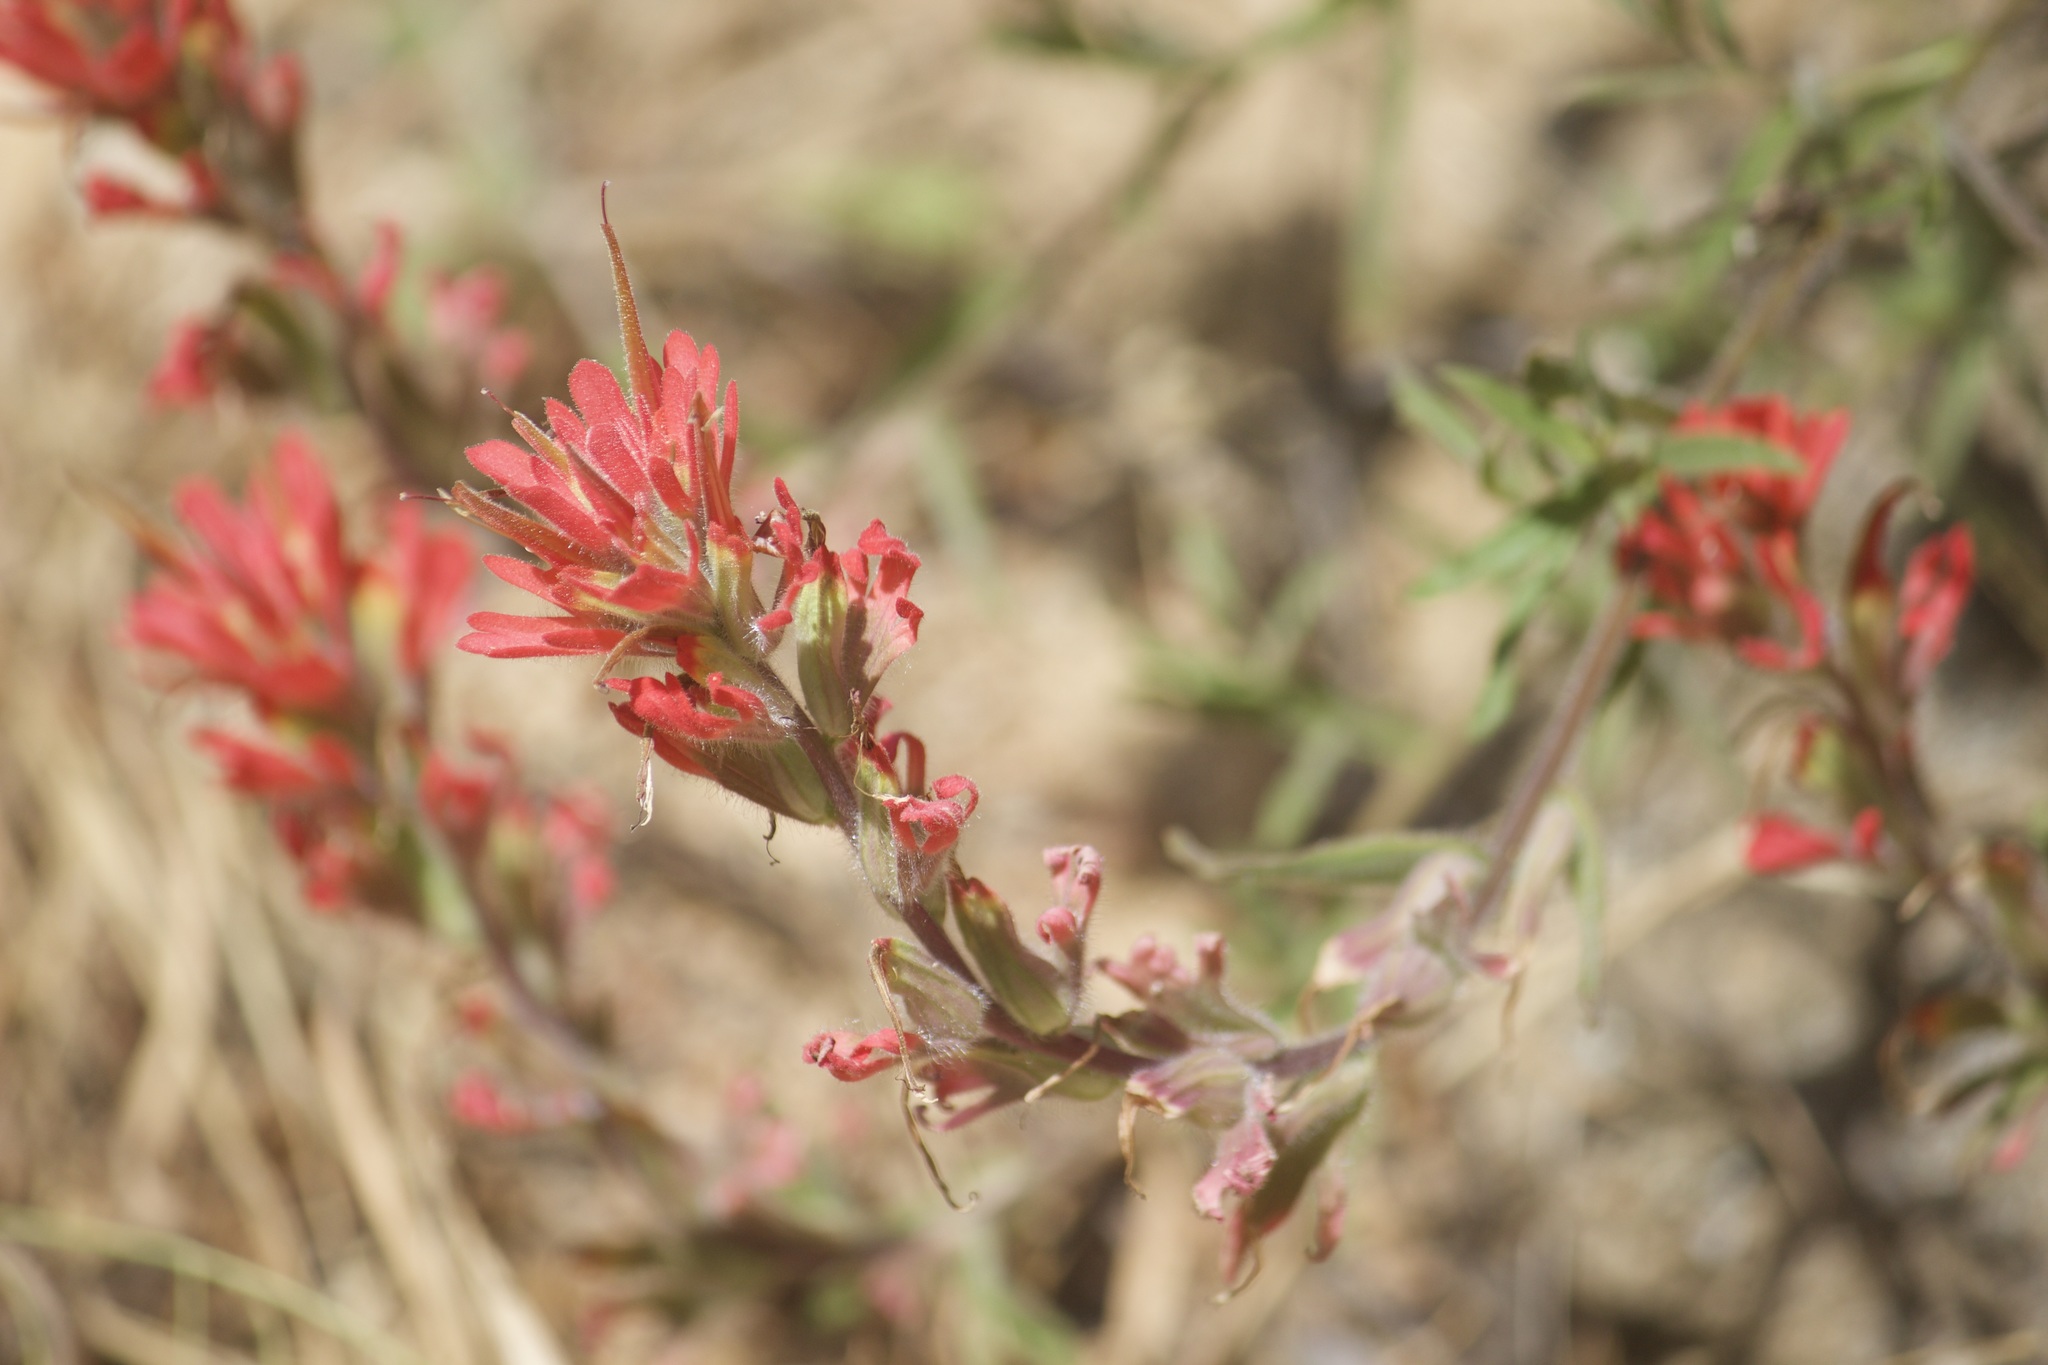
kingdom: Plantae
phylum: Tracheophyta
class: Magnoliopsida
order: Lamiales
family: Orobanchaceae
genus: Castilleja
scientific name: Castilleja martini
